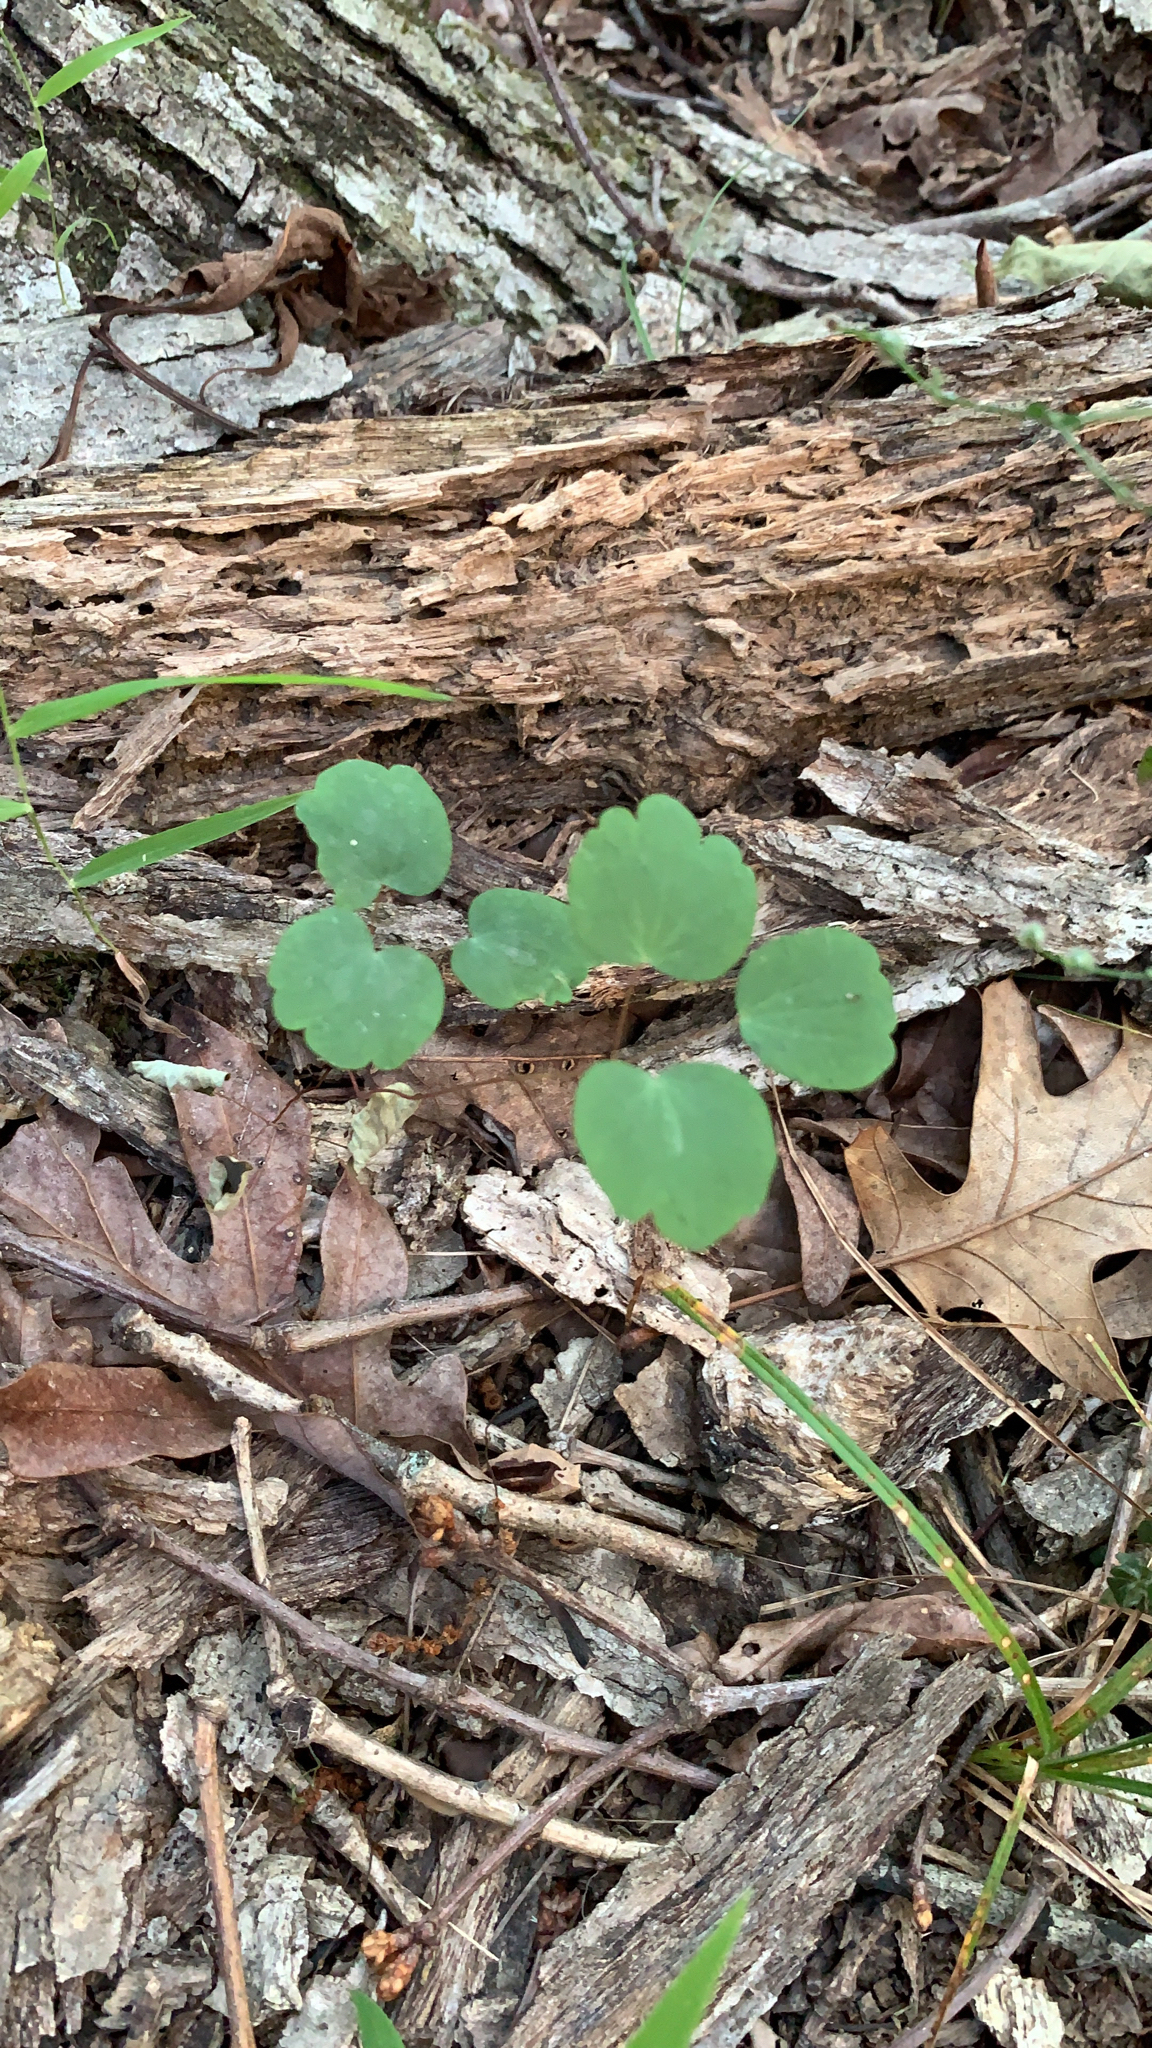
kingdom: Plantae
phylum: Tracheophyta
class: Magnoliopsida
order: Ranunculales
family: Ranunculaceae
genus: Thalictrum
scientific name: Thalictrum thalictroides
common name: Rue-anemone
